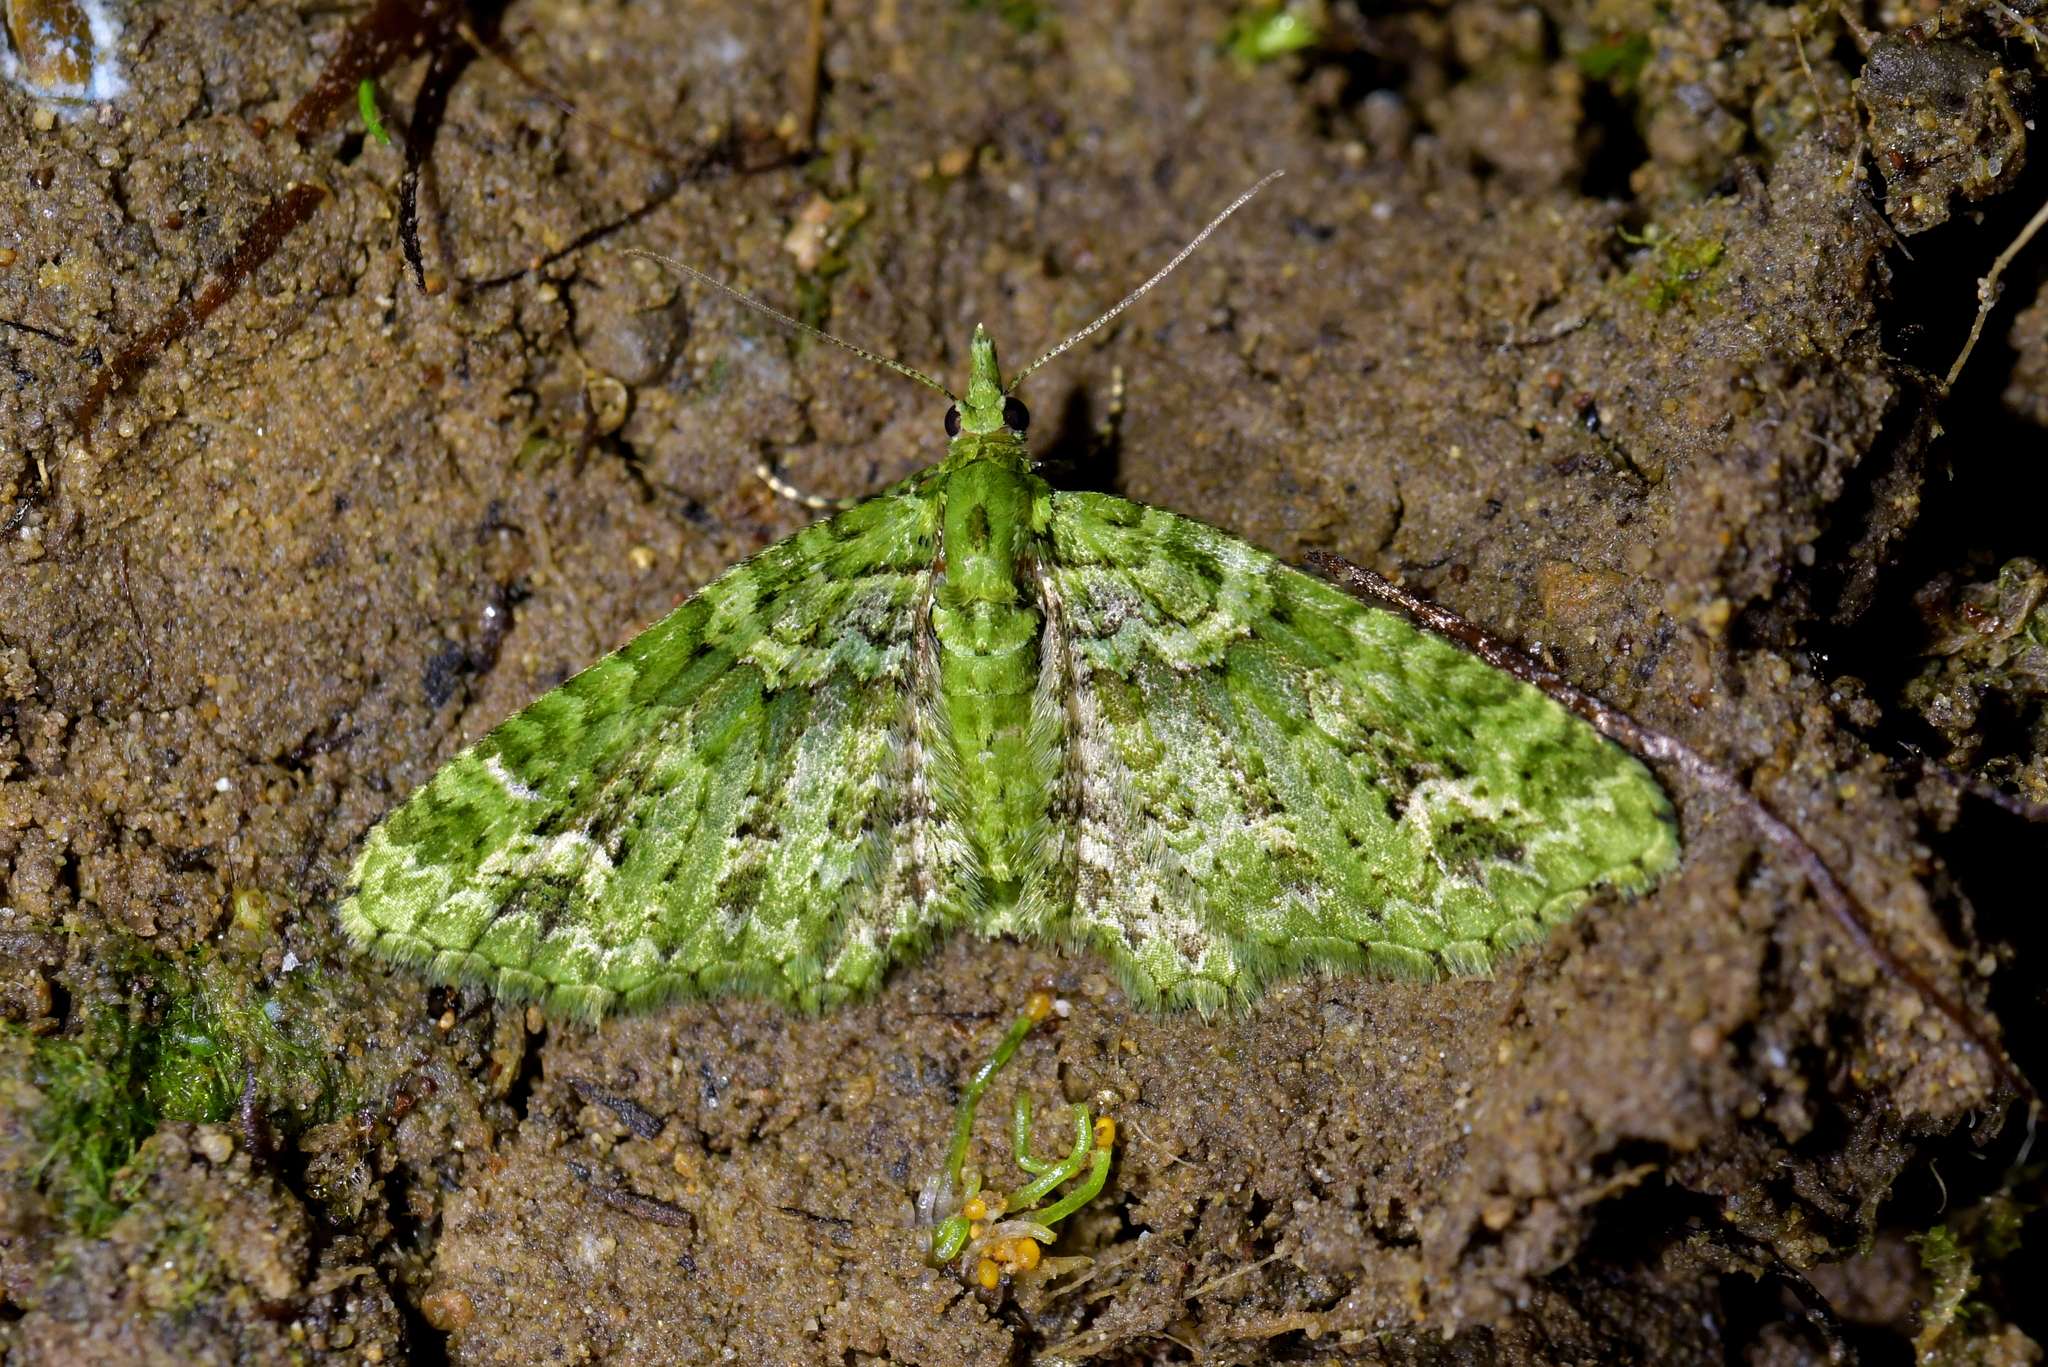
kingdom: Animalia
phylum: Arthropoda
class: Insecta
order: Lepidoptera
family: Geometridae
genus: Pasiphila
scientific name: Pasiphila muscosata
